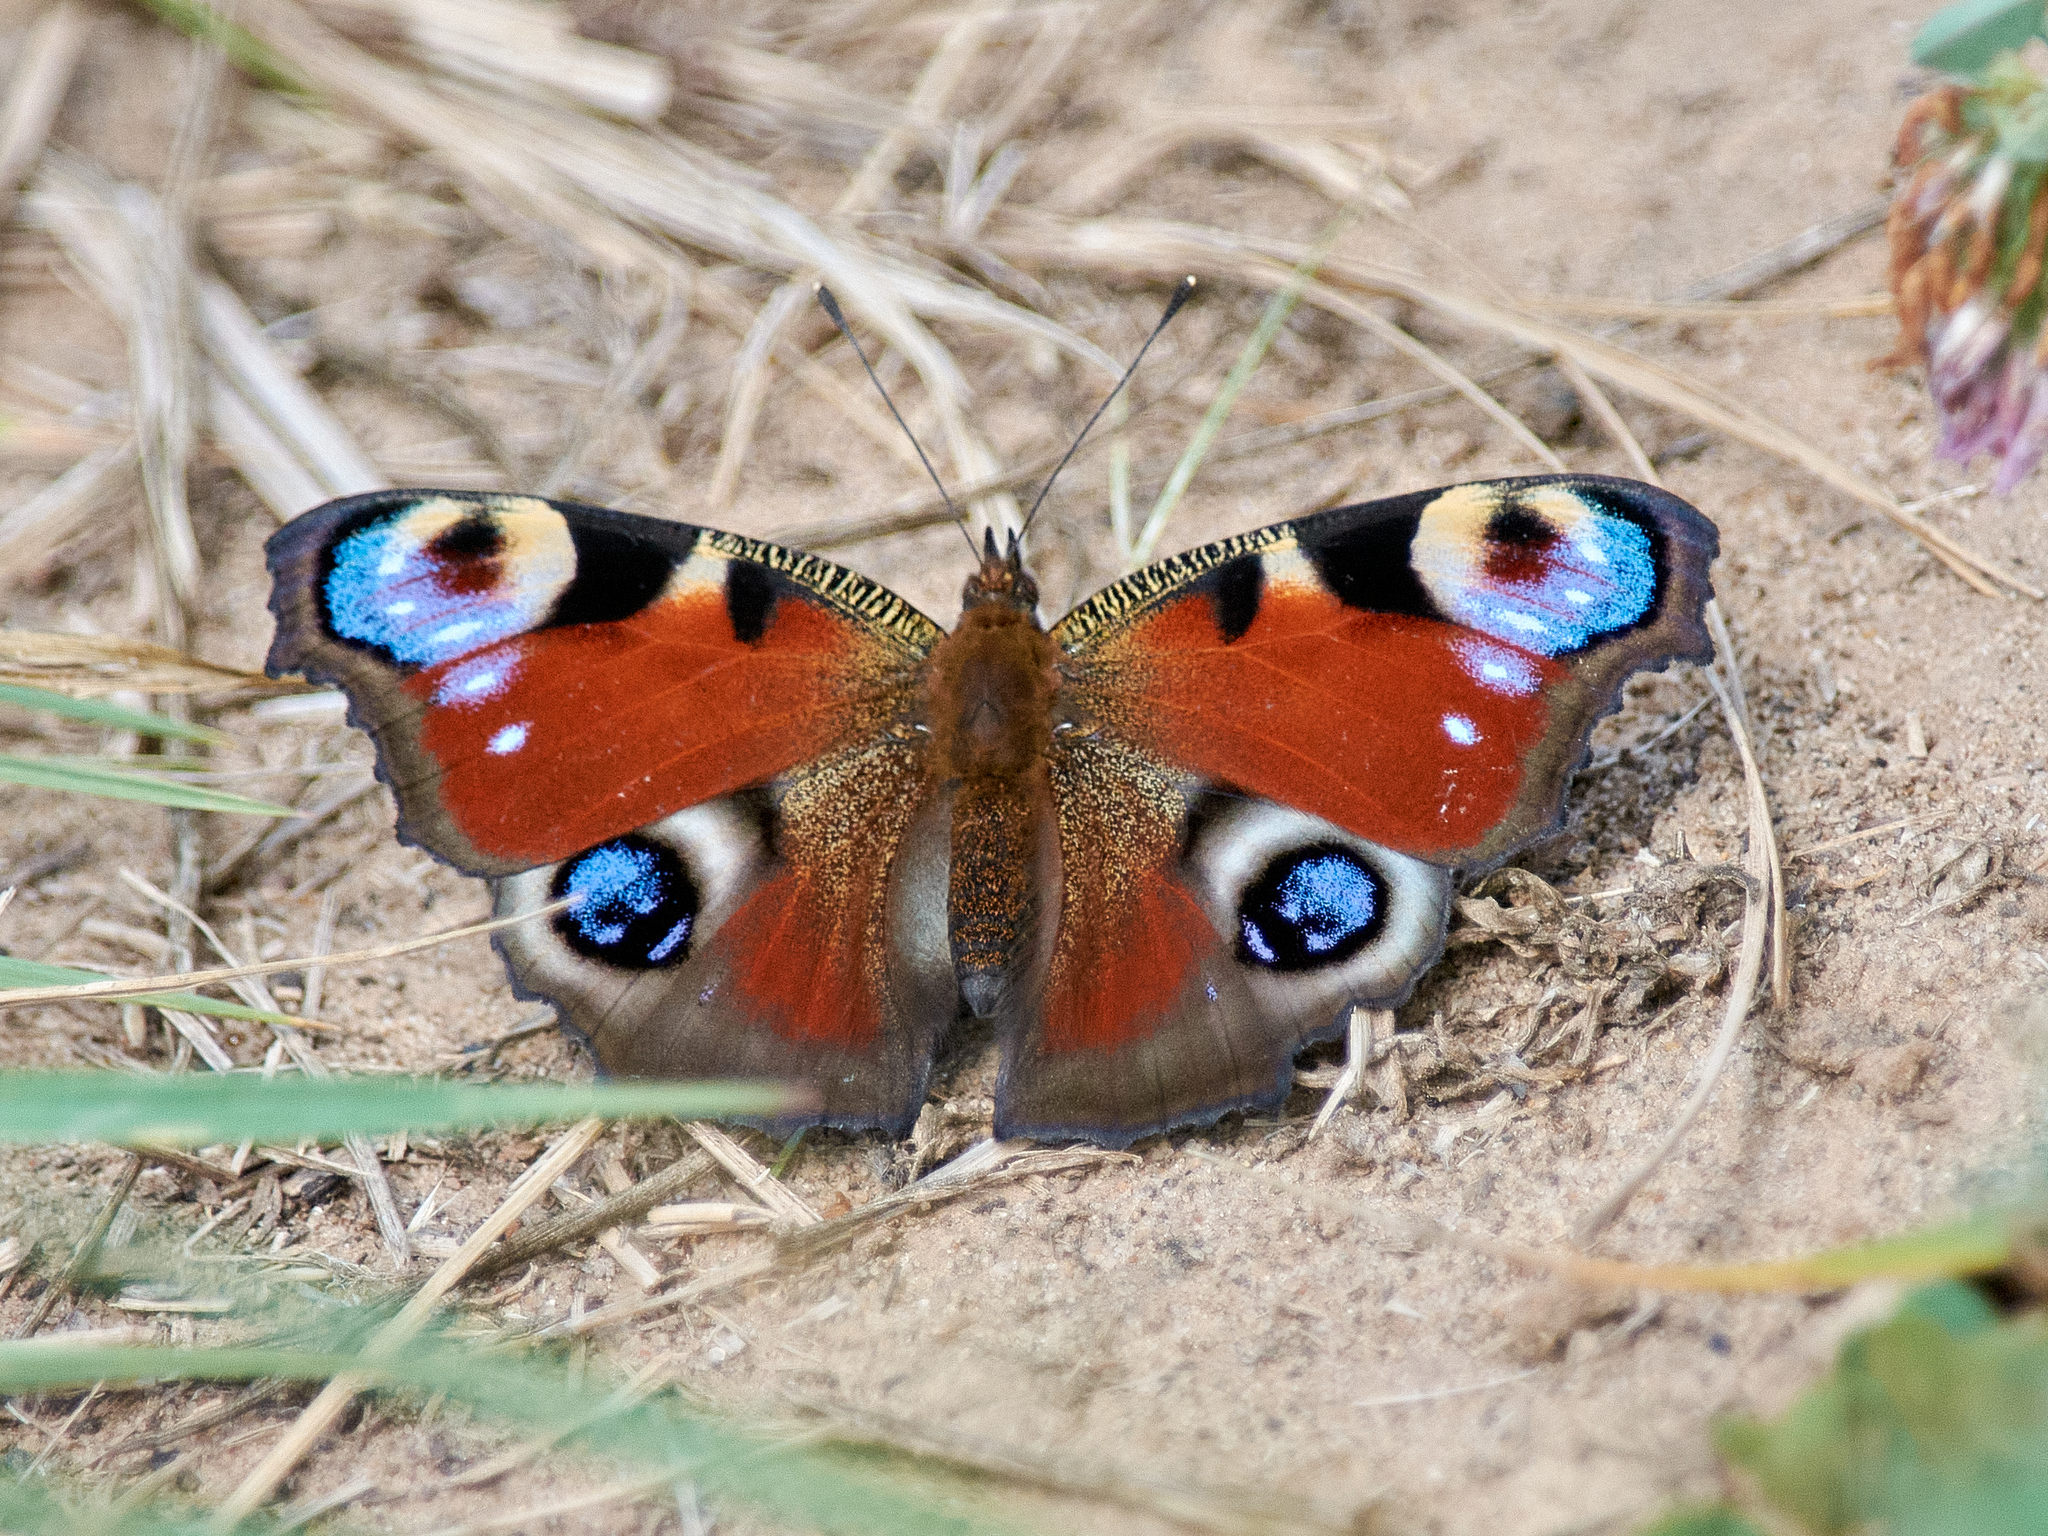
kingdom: Animalia
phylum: Arthropoda
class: Insecta
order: Lepidoptera
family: Nymphalidae
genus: Aglais
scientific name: Aglais io
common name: Peacock
